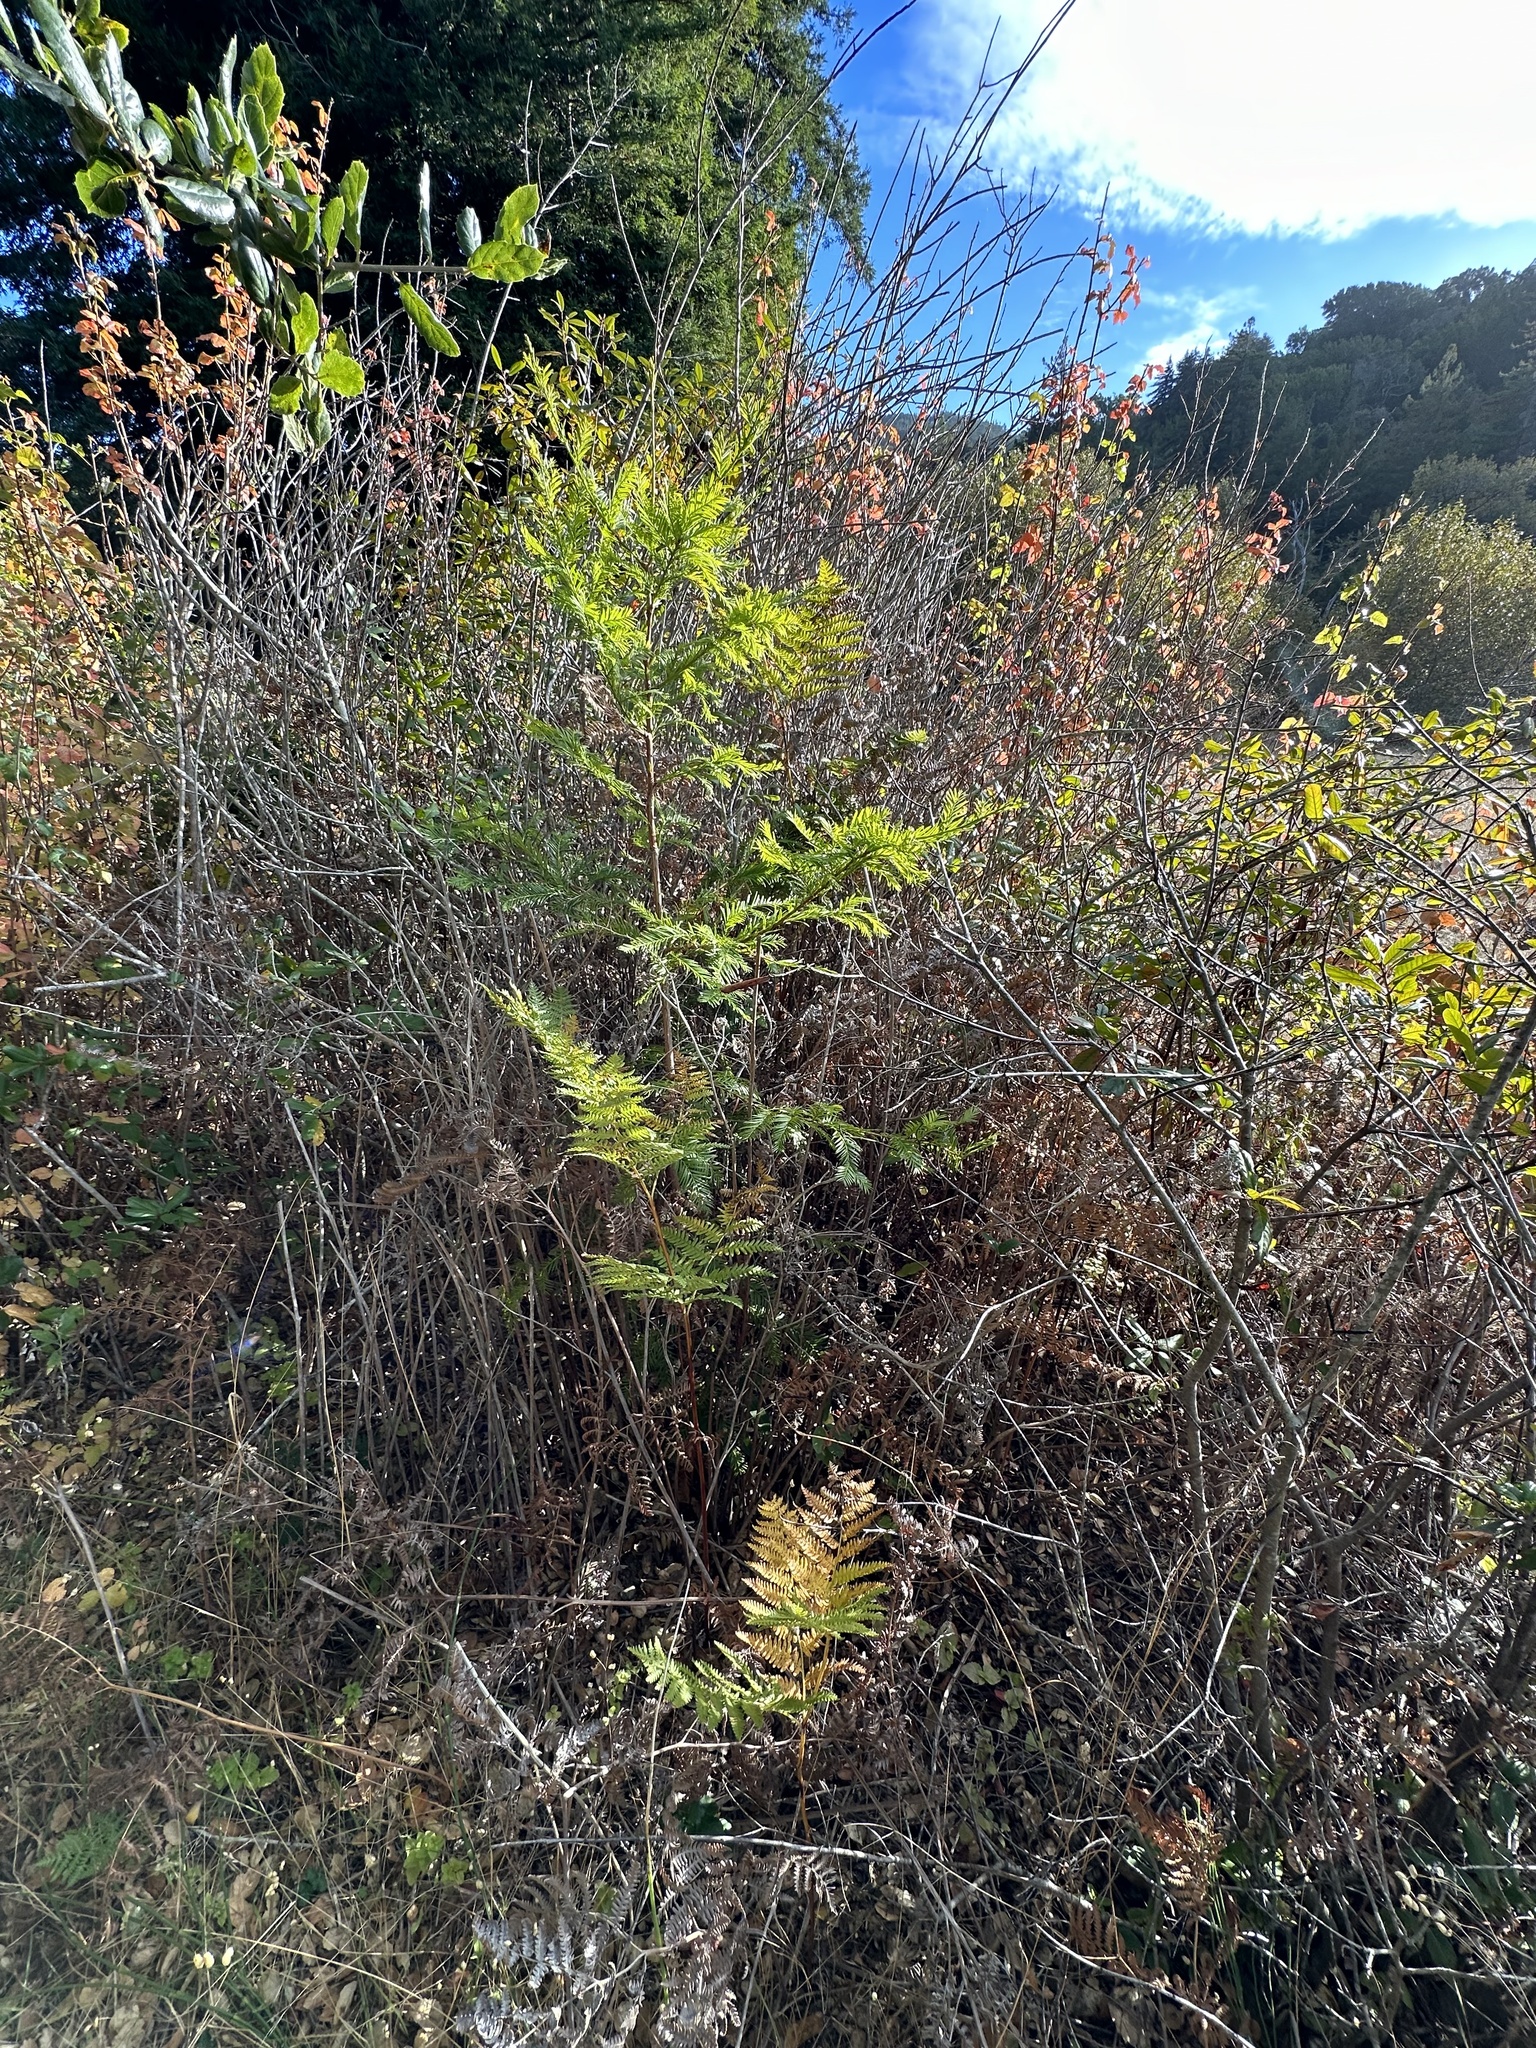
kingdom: Plantae
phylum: Tracheophyta
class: Pinopsida
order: Pinales
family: Cupressaceae
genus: Sequoia
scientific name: Sequoia sempervirens
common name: Coast redwood
